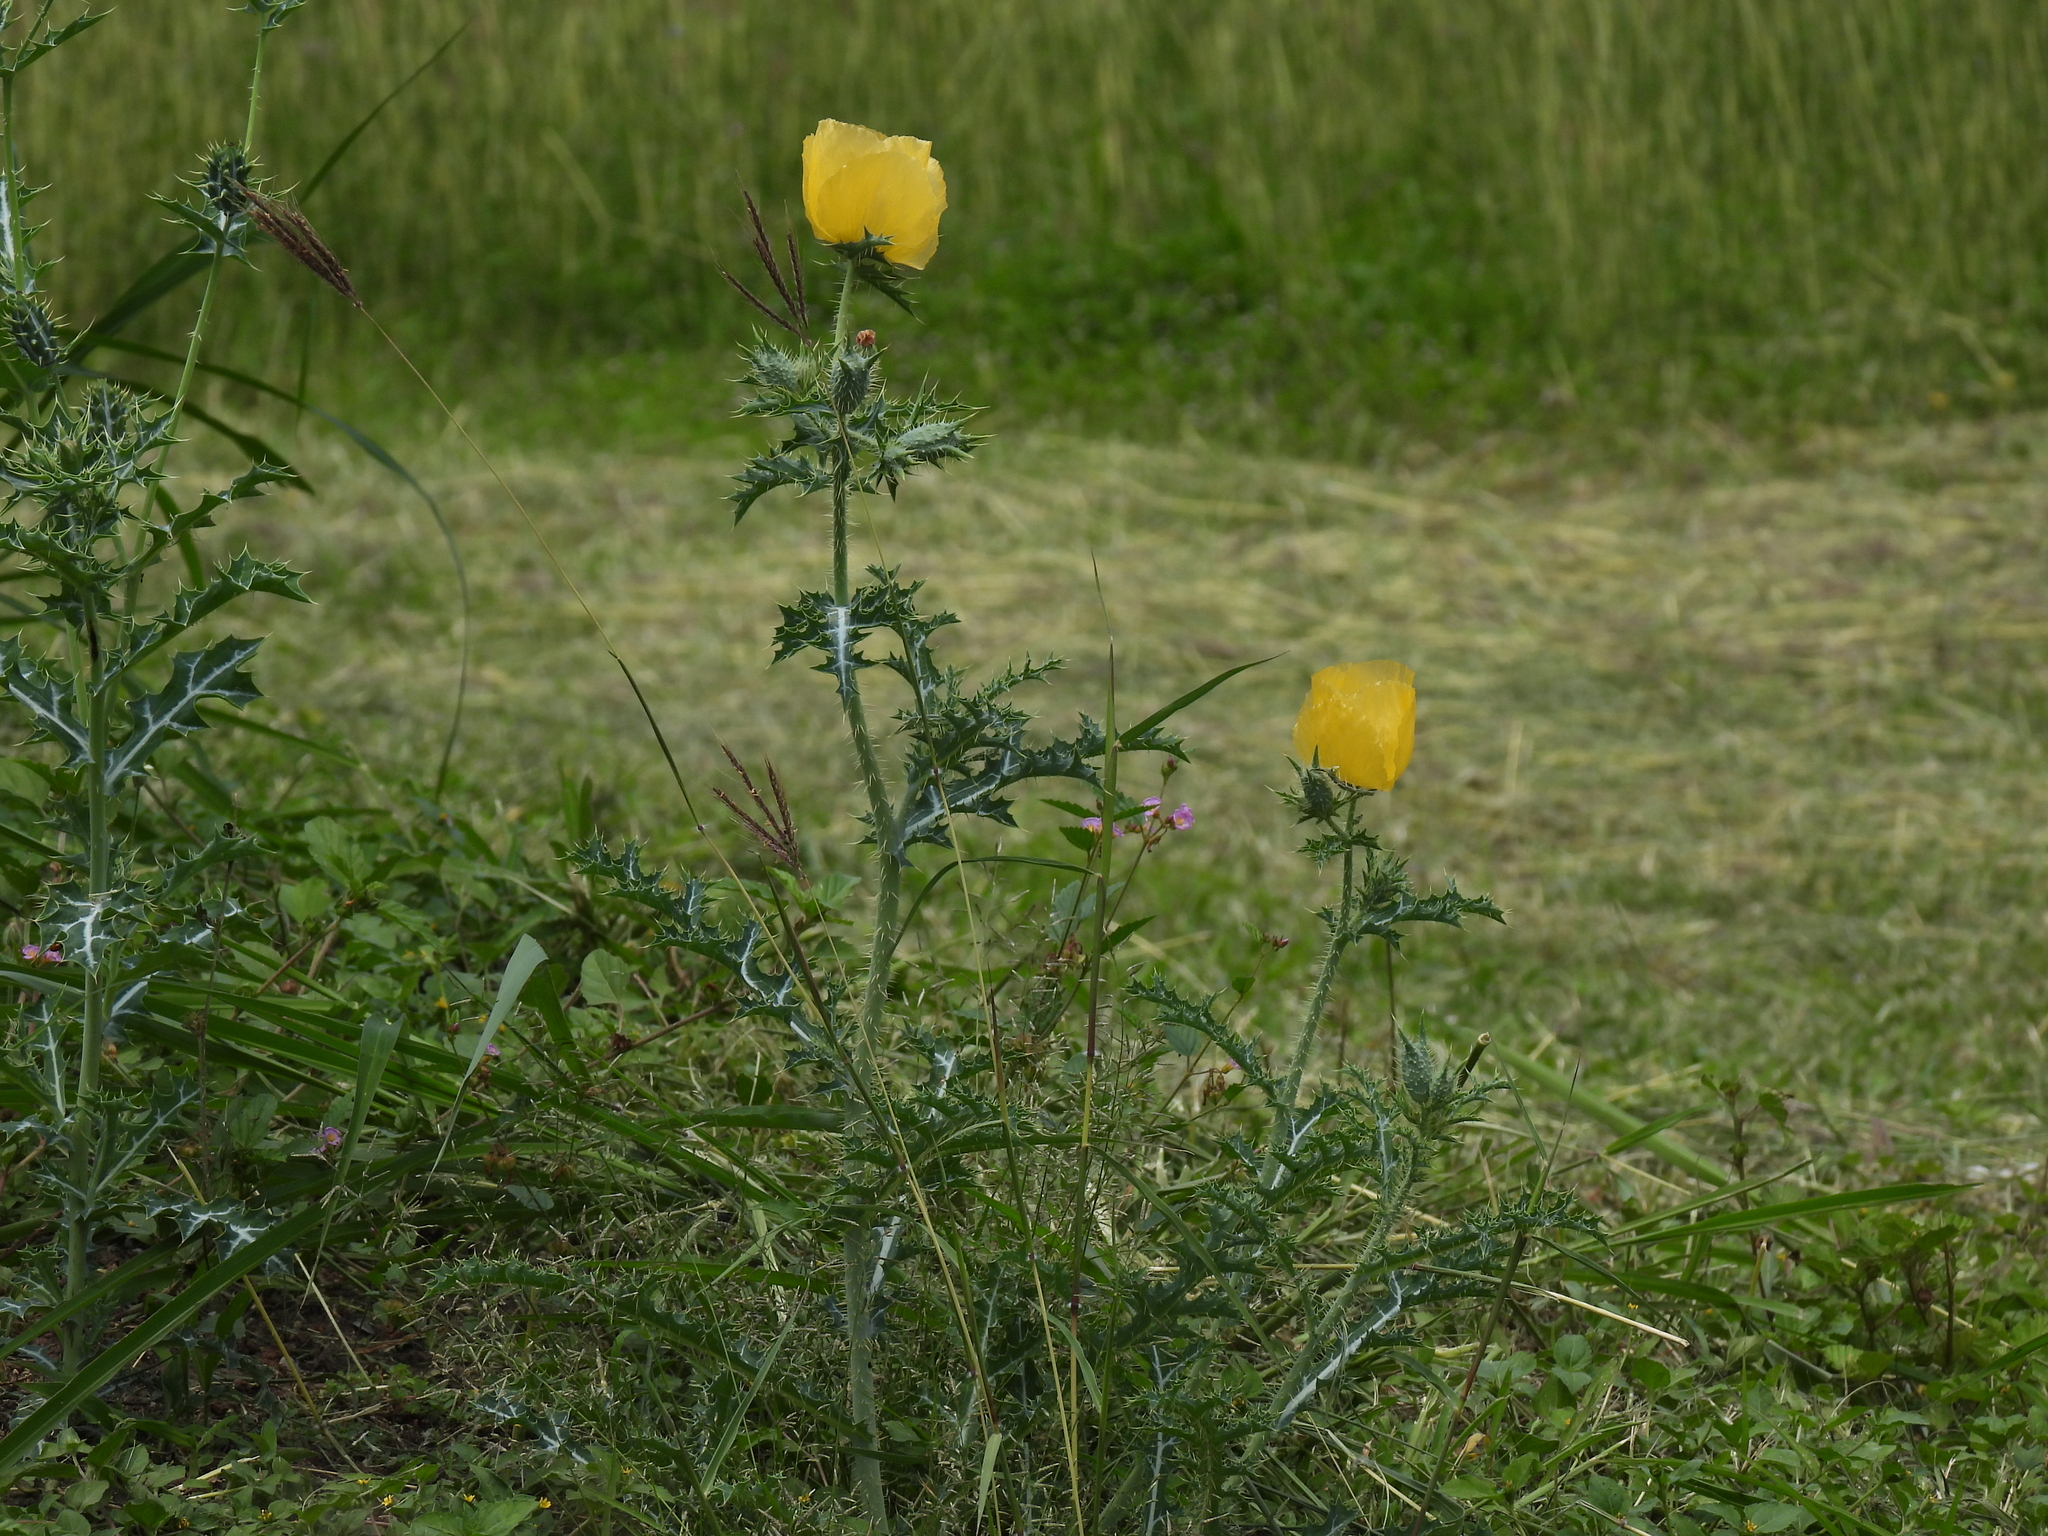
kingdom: Plantae
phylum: Tracheophyta
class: Magnoliopsida
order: Ranunculales
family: Papaveraceae
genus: Argemone
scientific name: Argemone aenea
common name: Golden prickly-poppy
